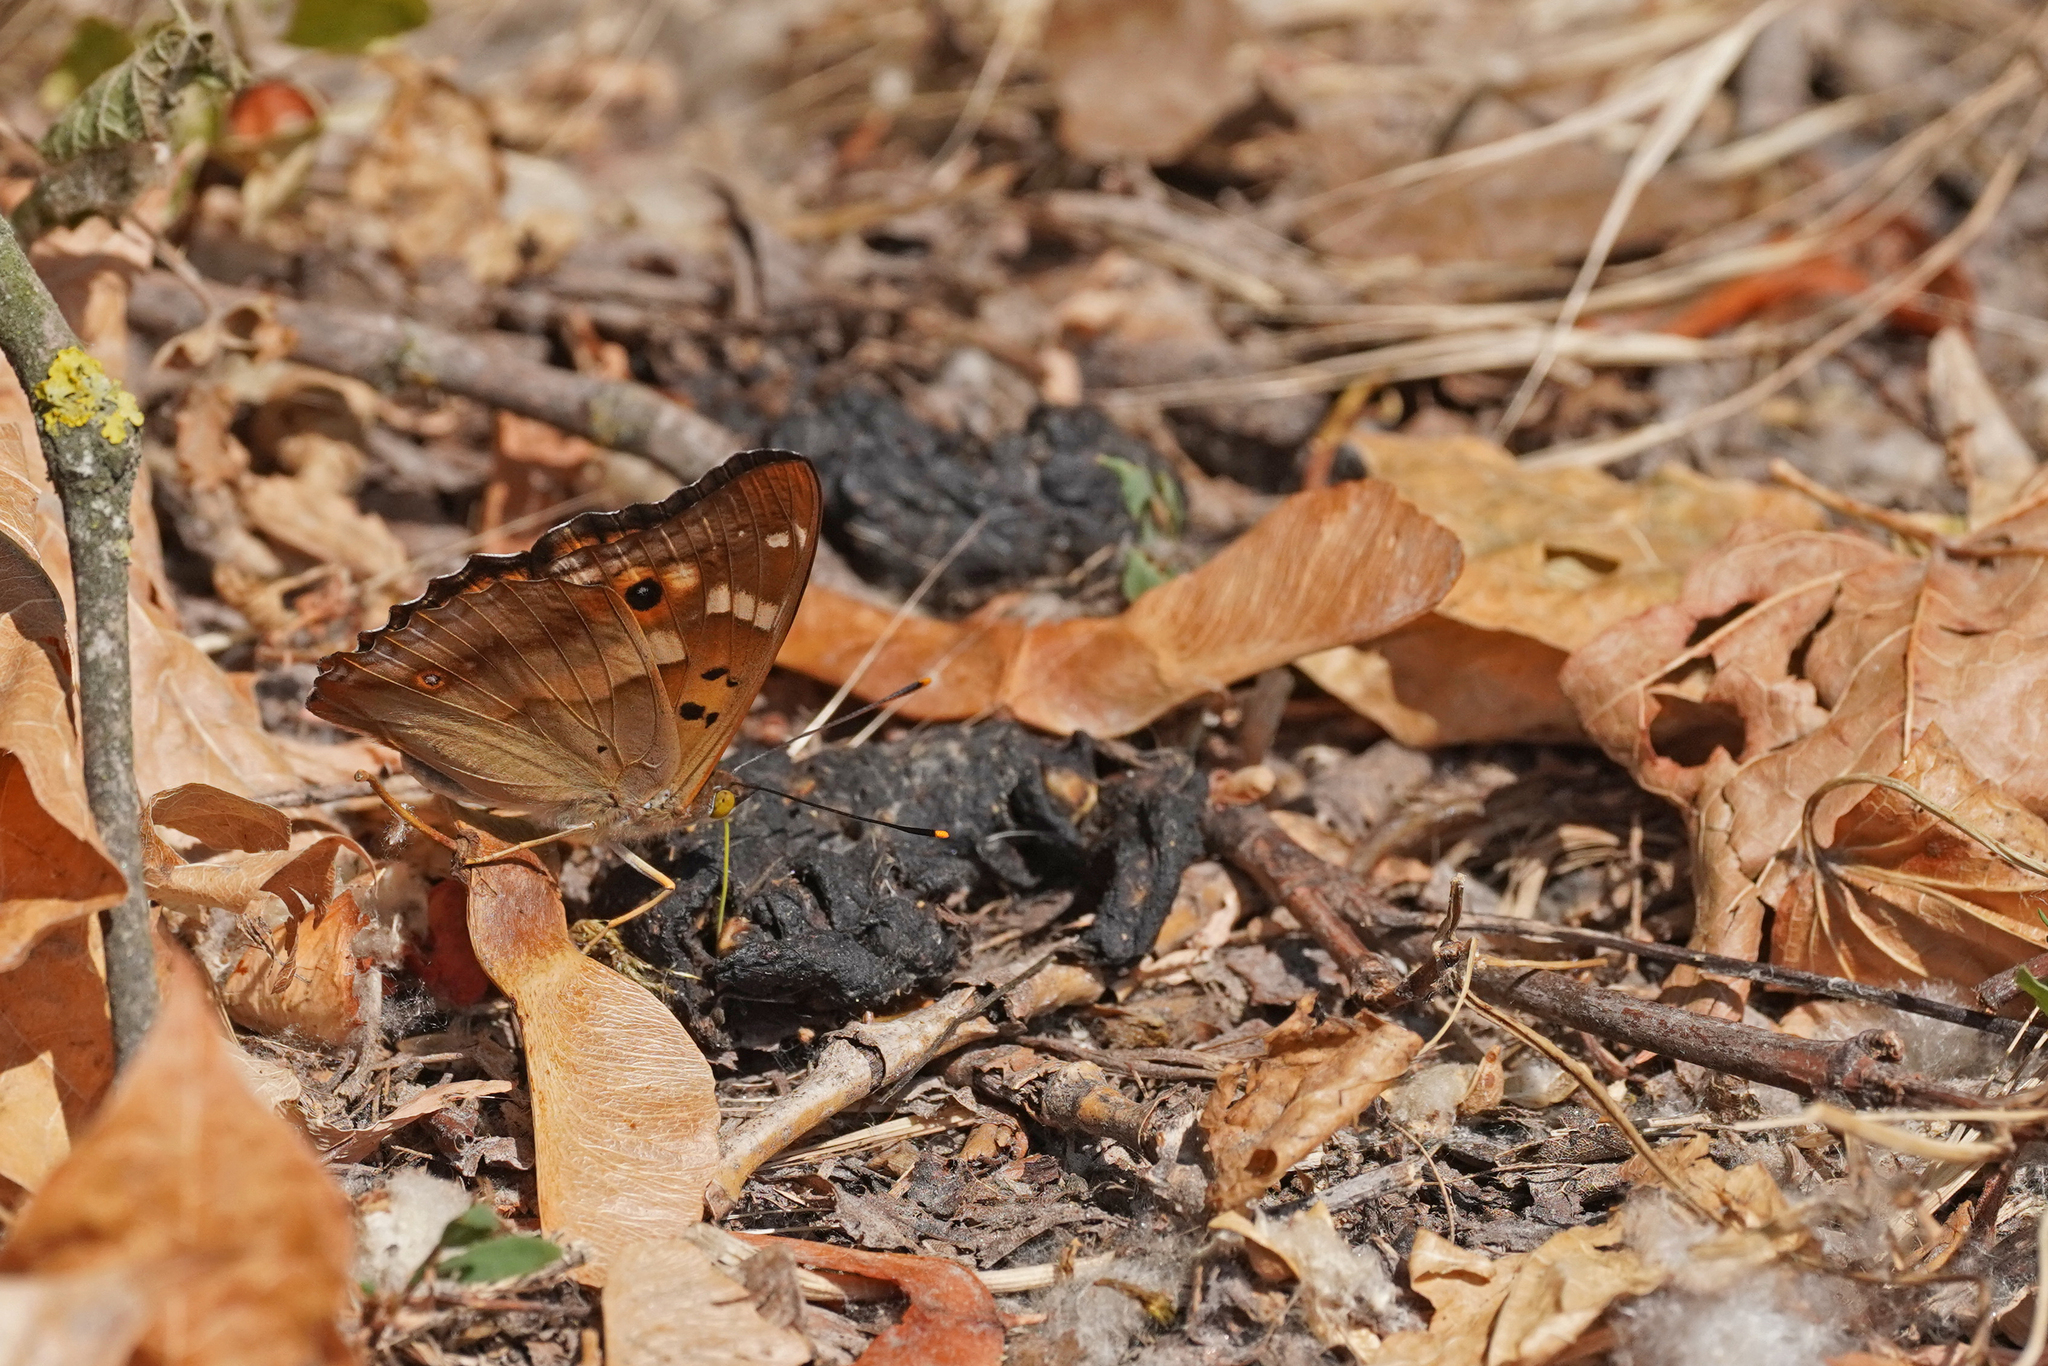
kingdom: Animalia
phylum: Arthropoda
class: Insecta
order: Lepidoptera
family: Nymphalidae
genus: Apatura
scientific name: Apatura ilia
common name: Lesser purple emperor
